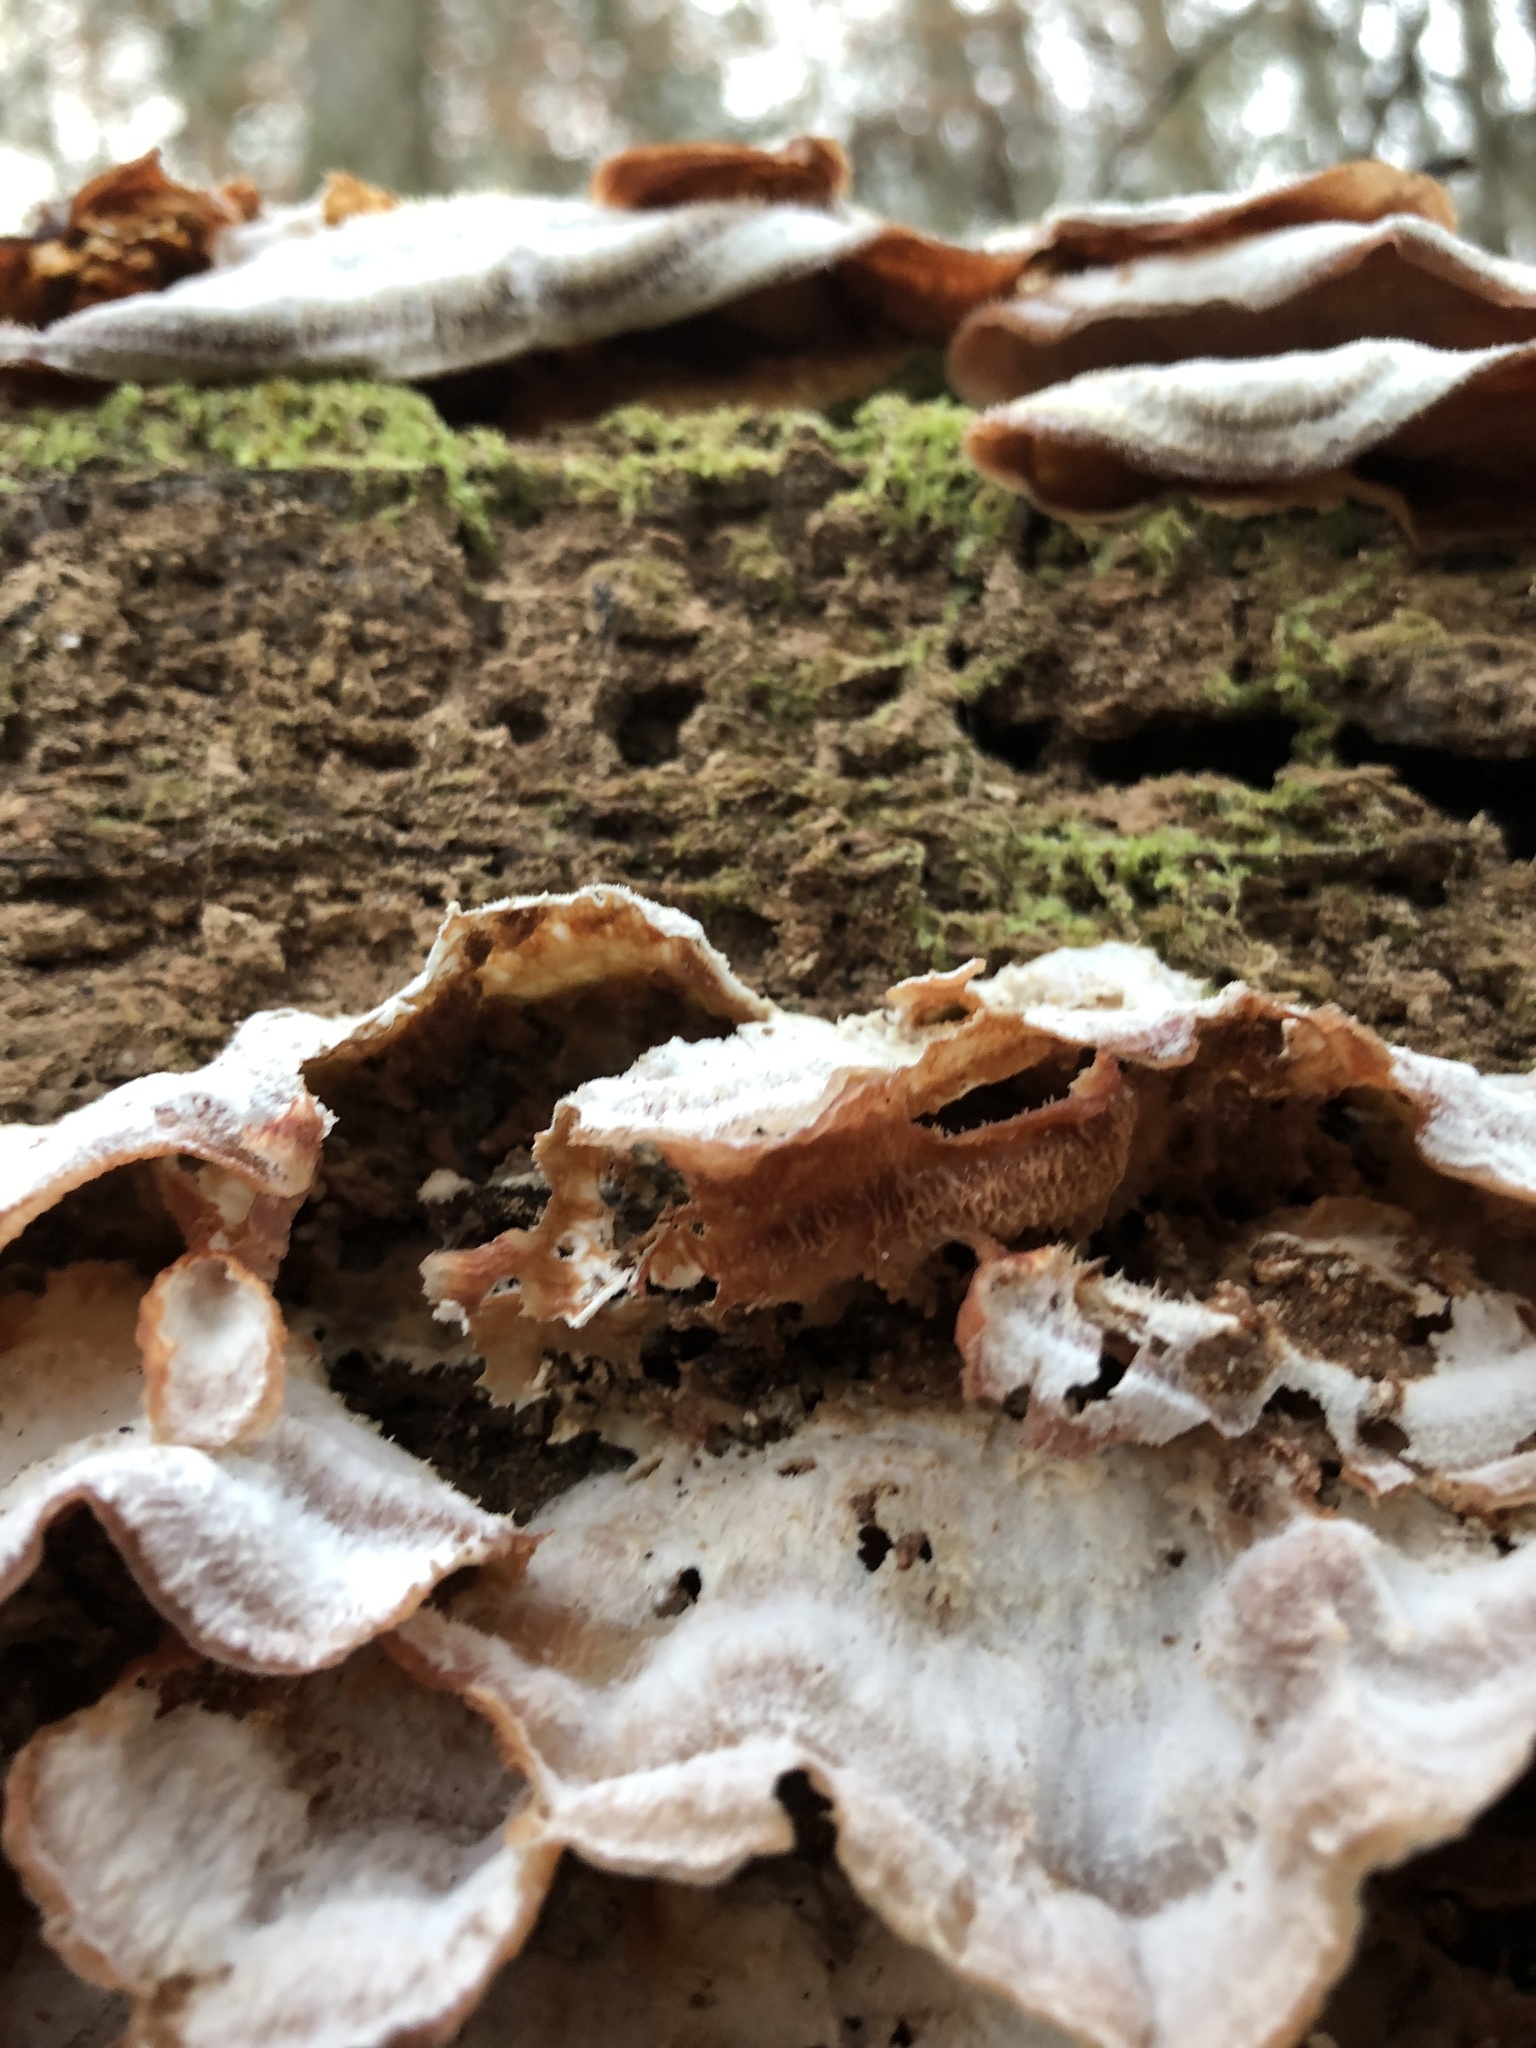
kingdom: Fungi
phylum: Basidiomycota
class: Agaricomycetes
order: Polyporales
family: Meruliaceae
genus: Phlebia
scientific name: Phlebia tremellosa
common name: Jelly rot
